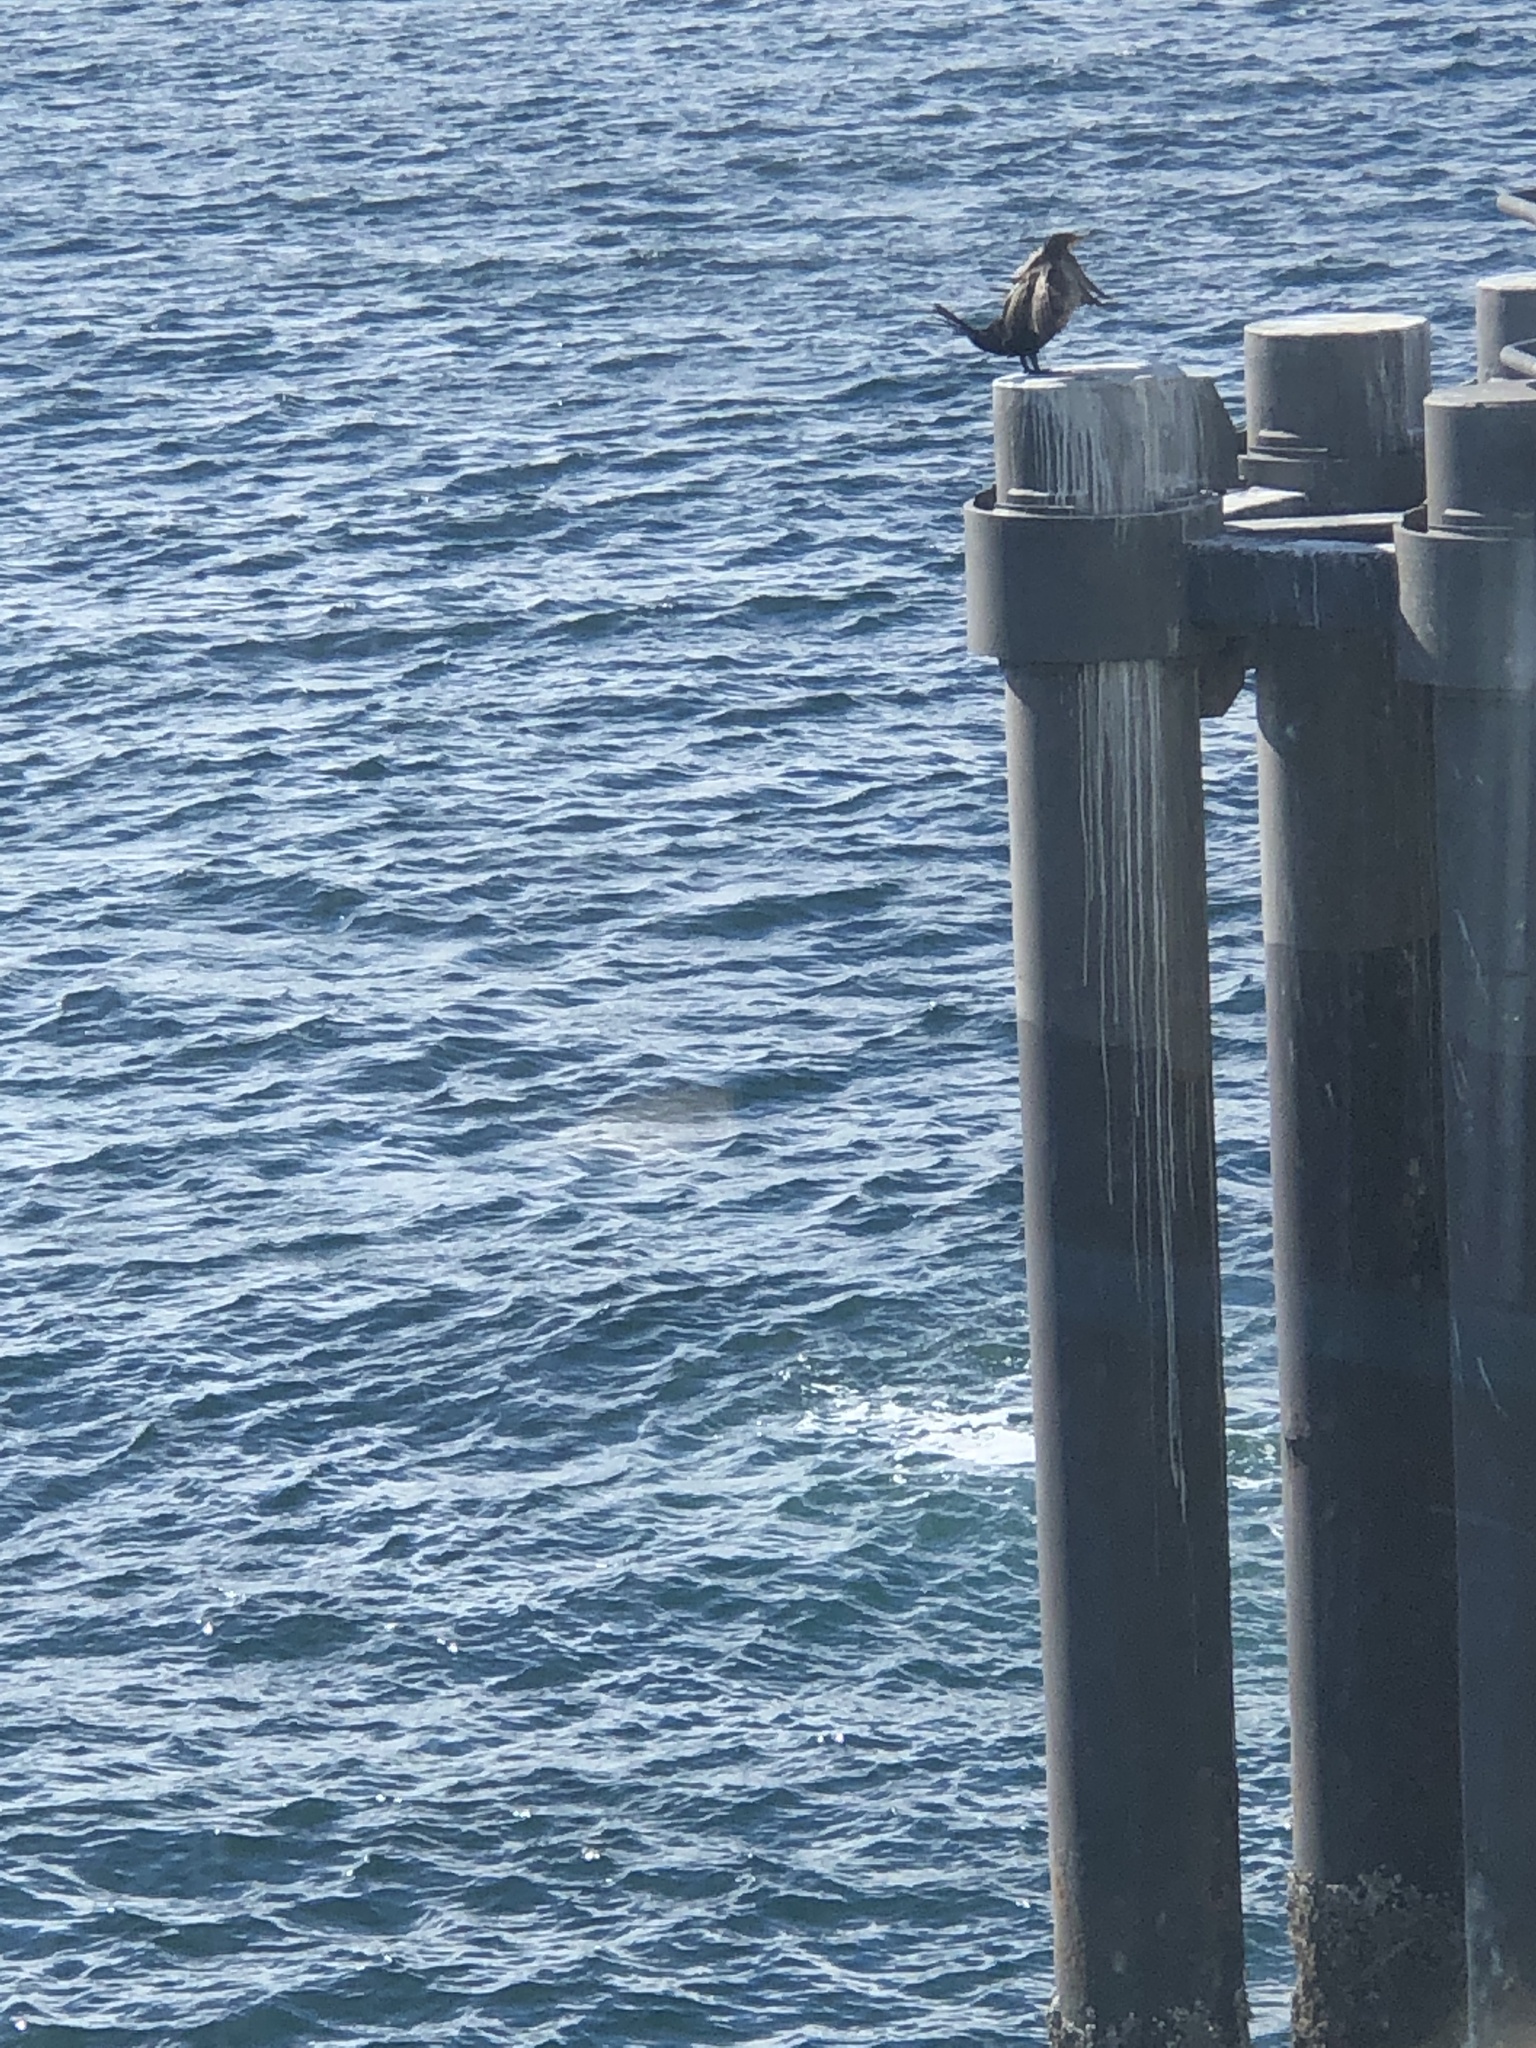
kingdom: Animalia
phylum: Chordata
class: Aves
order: Suliformes
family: Phalacrocoracidae
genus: Phalacrocorax
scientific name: Phalacrocorax auritus
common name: Double-crested cormorant
